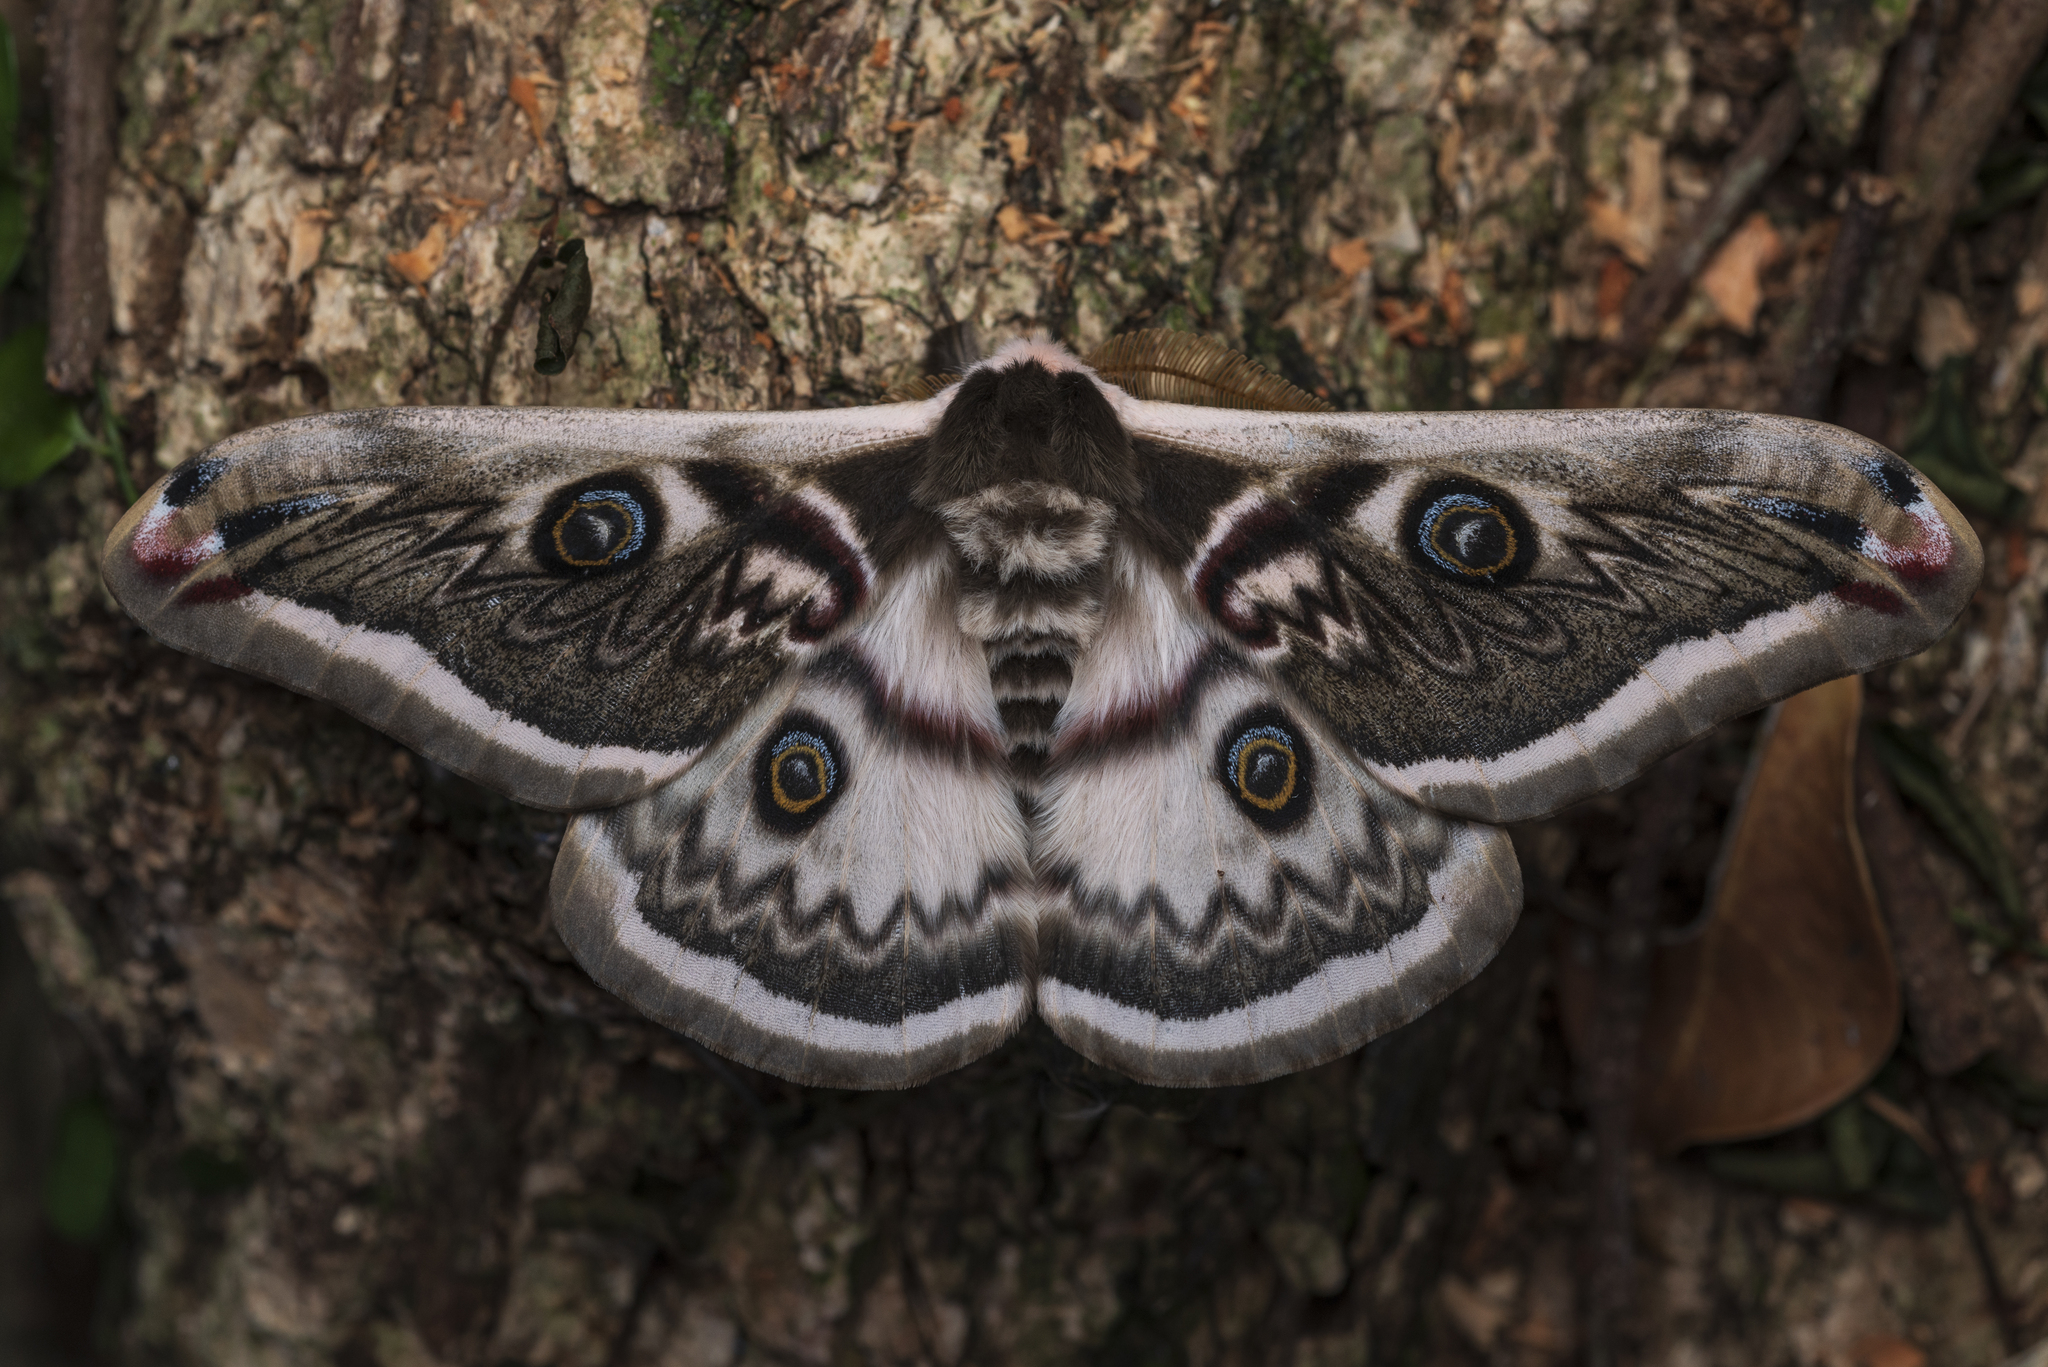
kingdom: Animalia
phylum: Arthropoda
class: Insecta
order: Lepidoptera
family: Saturniidae
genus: Saturnia
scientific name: Saturnia pyretorum
